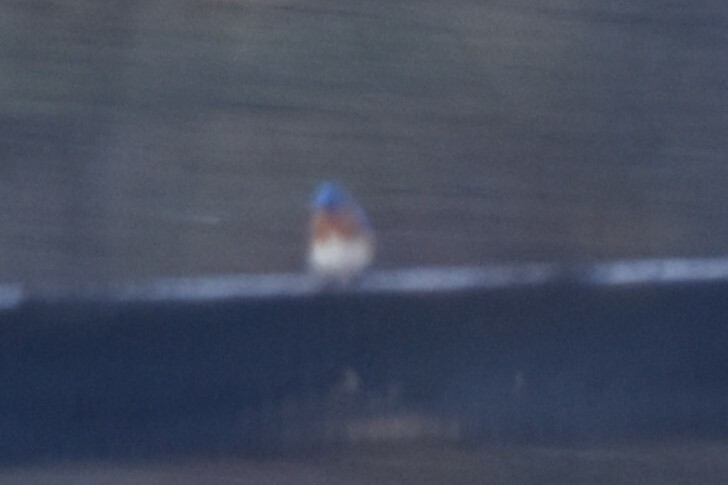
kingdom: Animalia
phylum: Chordata
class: Aves
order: Passeriformes
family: Turdidae
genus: Sialia
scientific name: Sialia sialis
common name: Eastern bluebird
